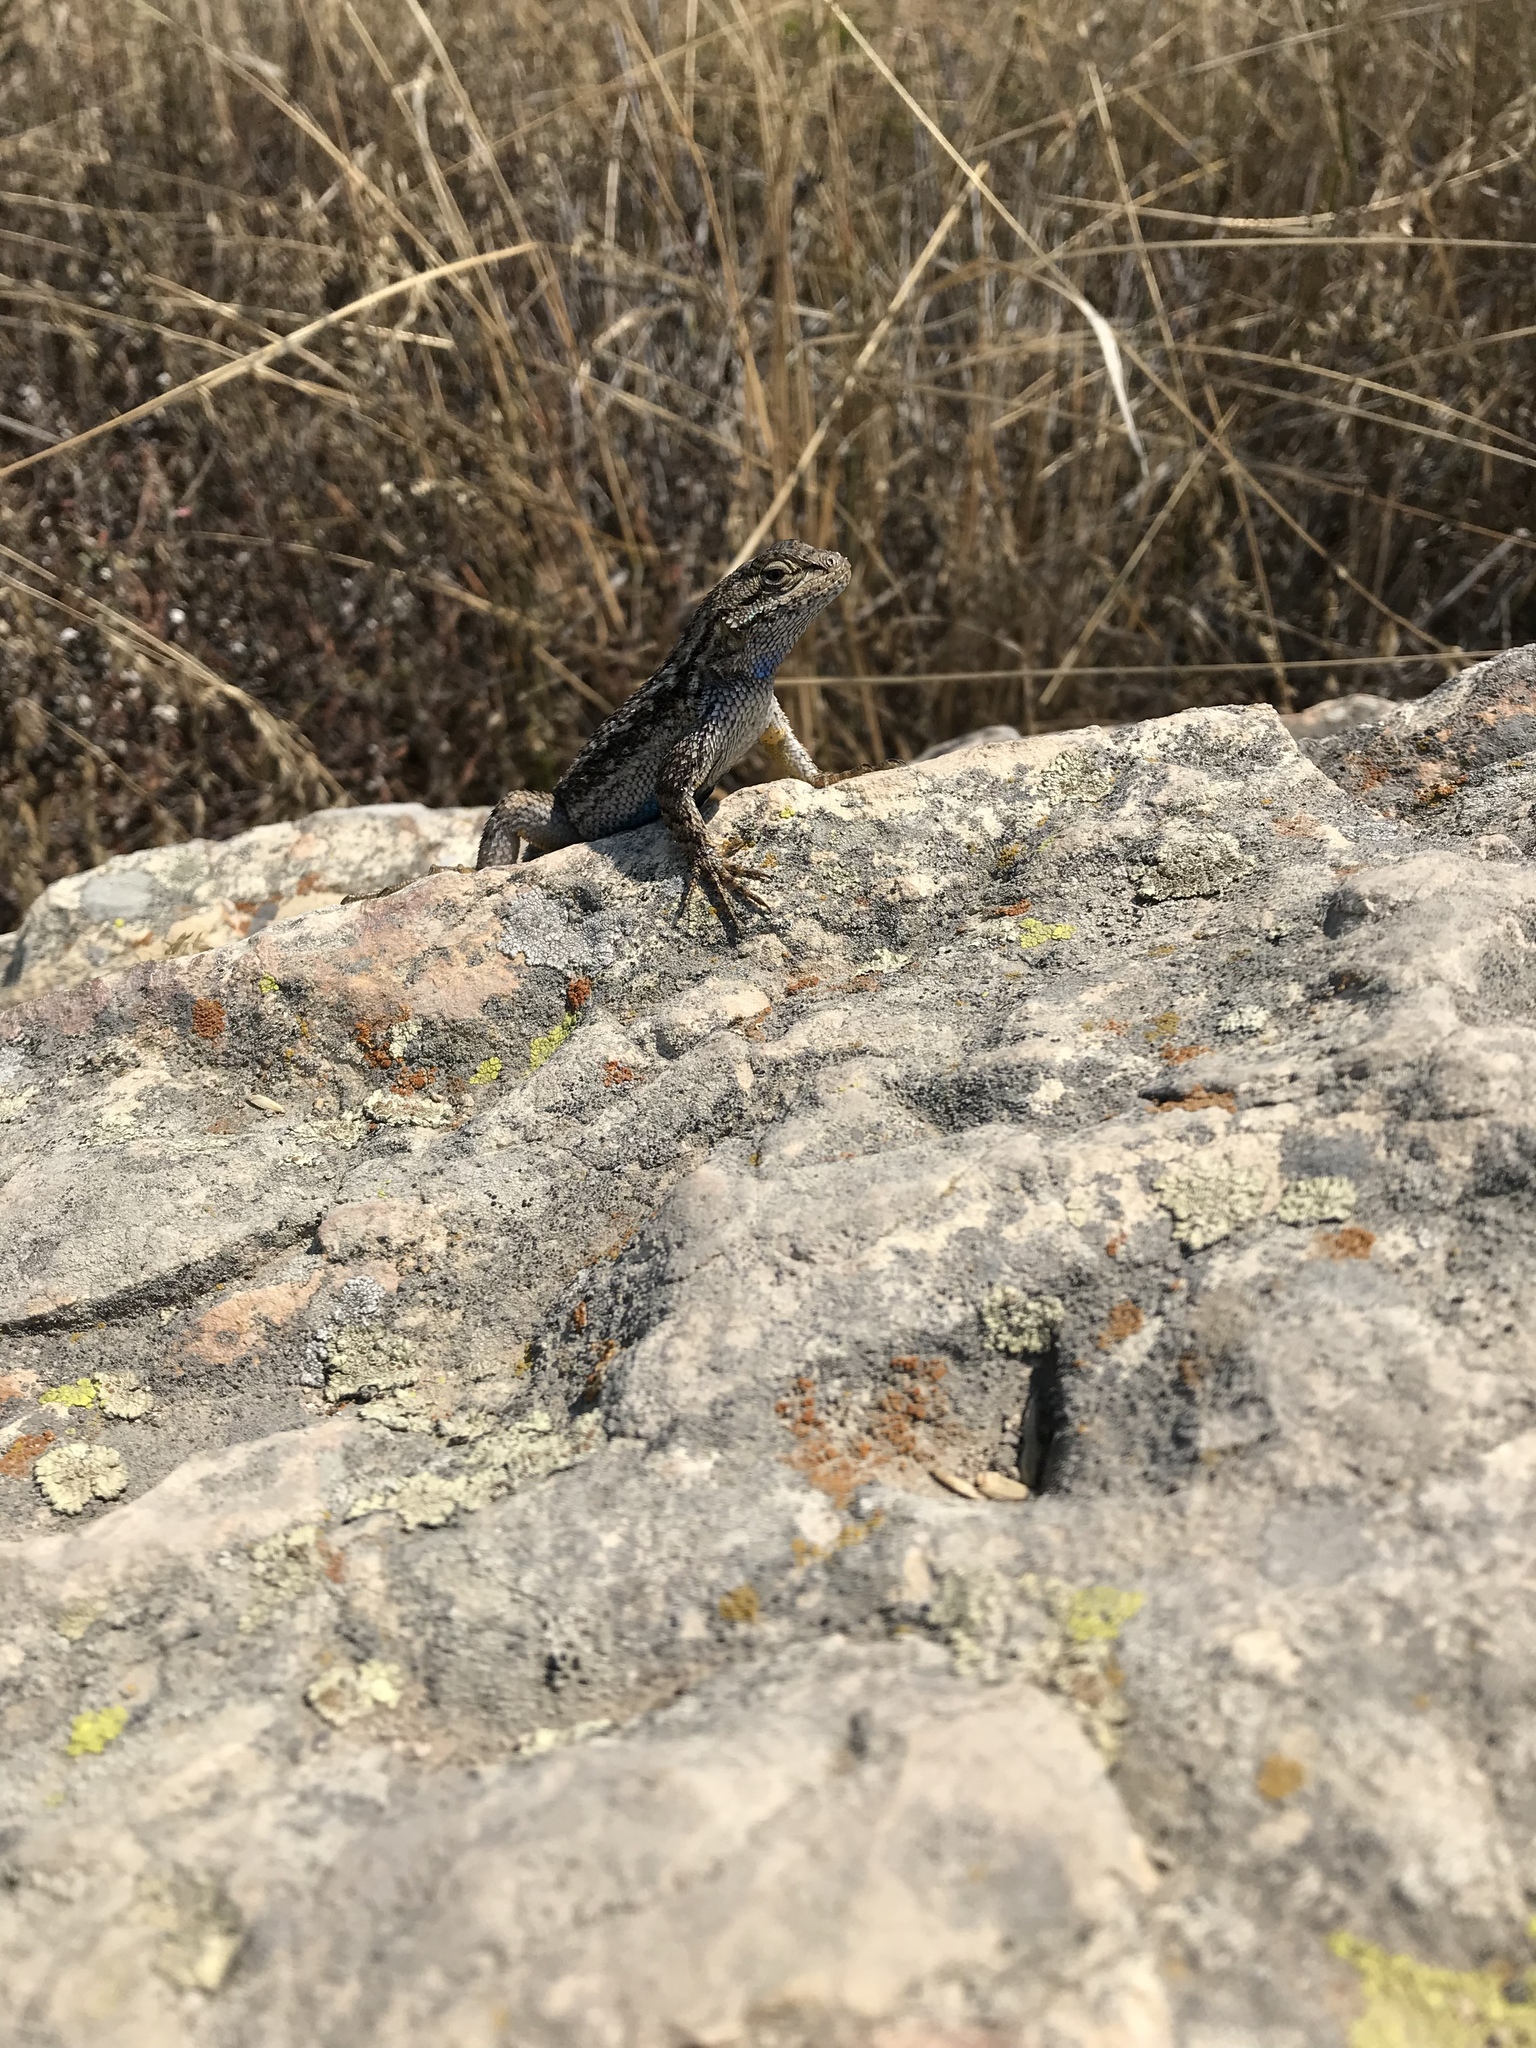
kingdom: Animalia
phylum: Chordata
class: Squamata
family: Phrynosomatidae
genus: Sceloporus
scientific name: Sceloporus occidentalis
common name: Western fence lizard
